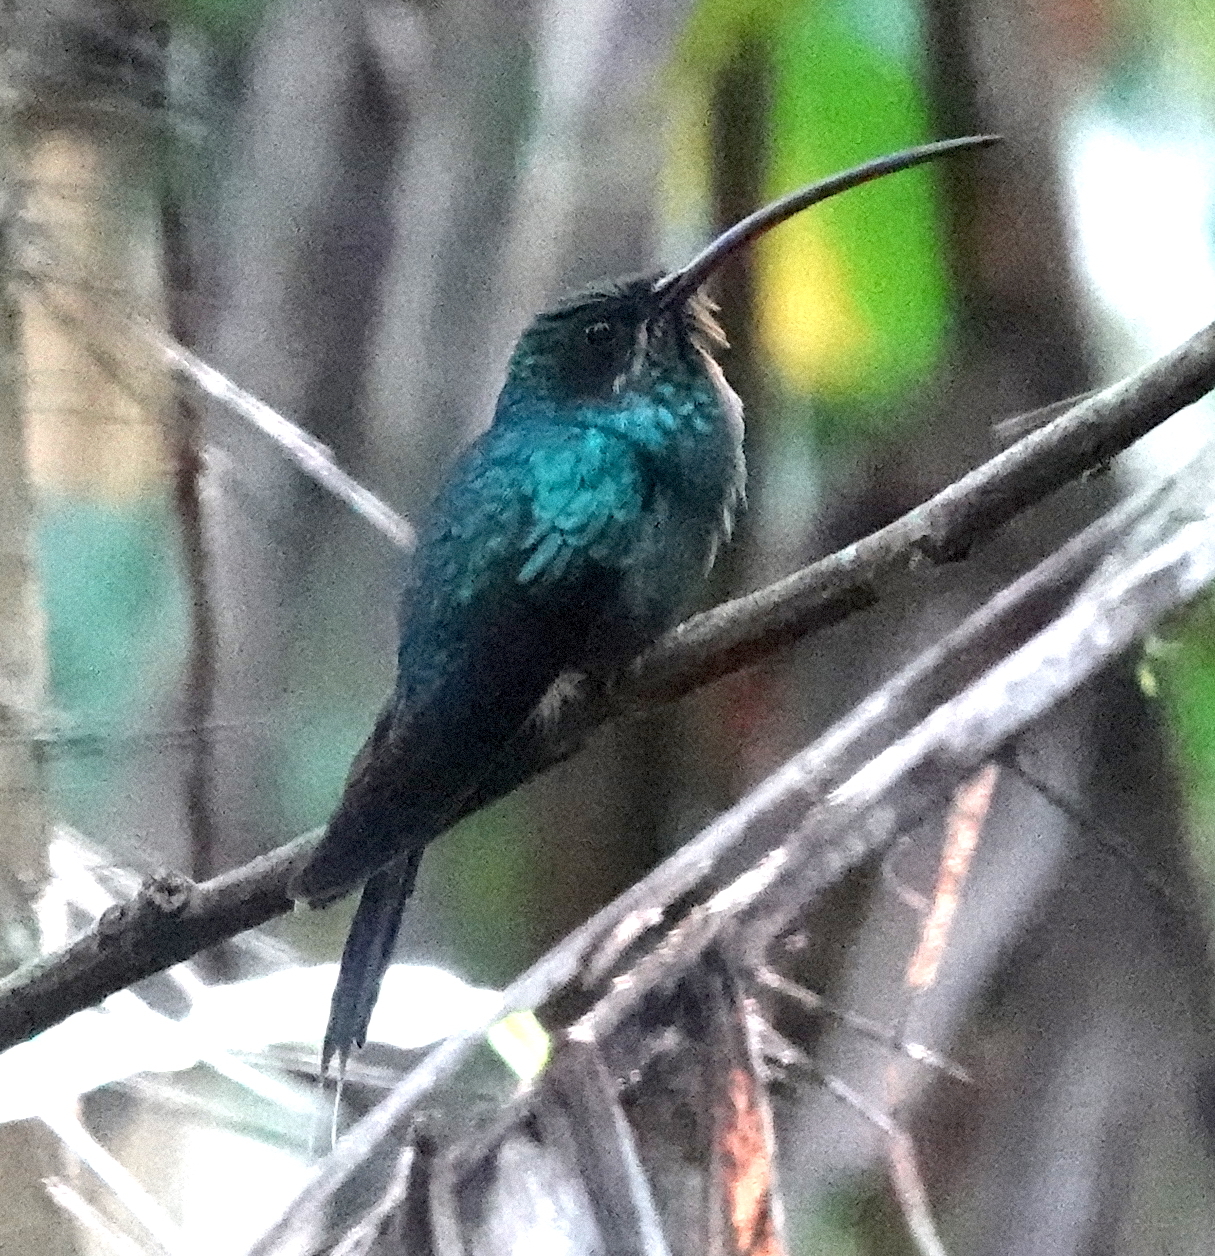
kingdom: Animalia
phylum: Chordata
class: Aves
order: Apodiformes
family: Trochilidae
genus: Phaethornis
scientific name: Phaethornis guy
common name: Green hermit
